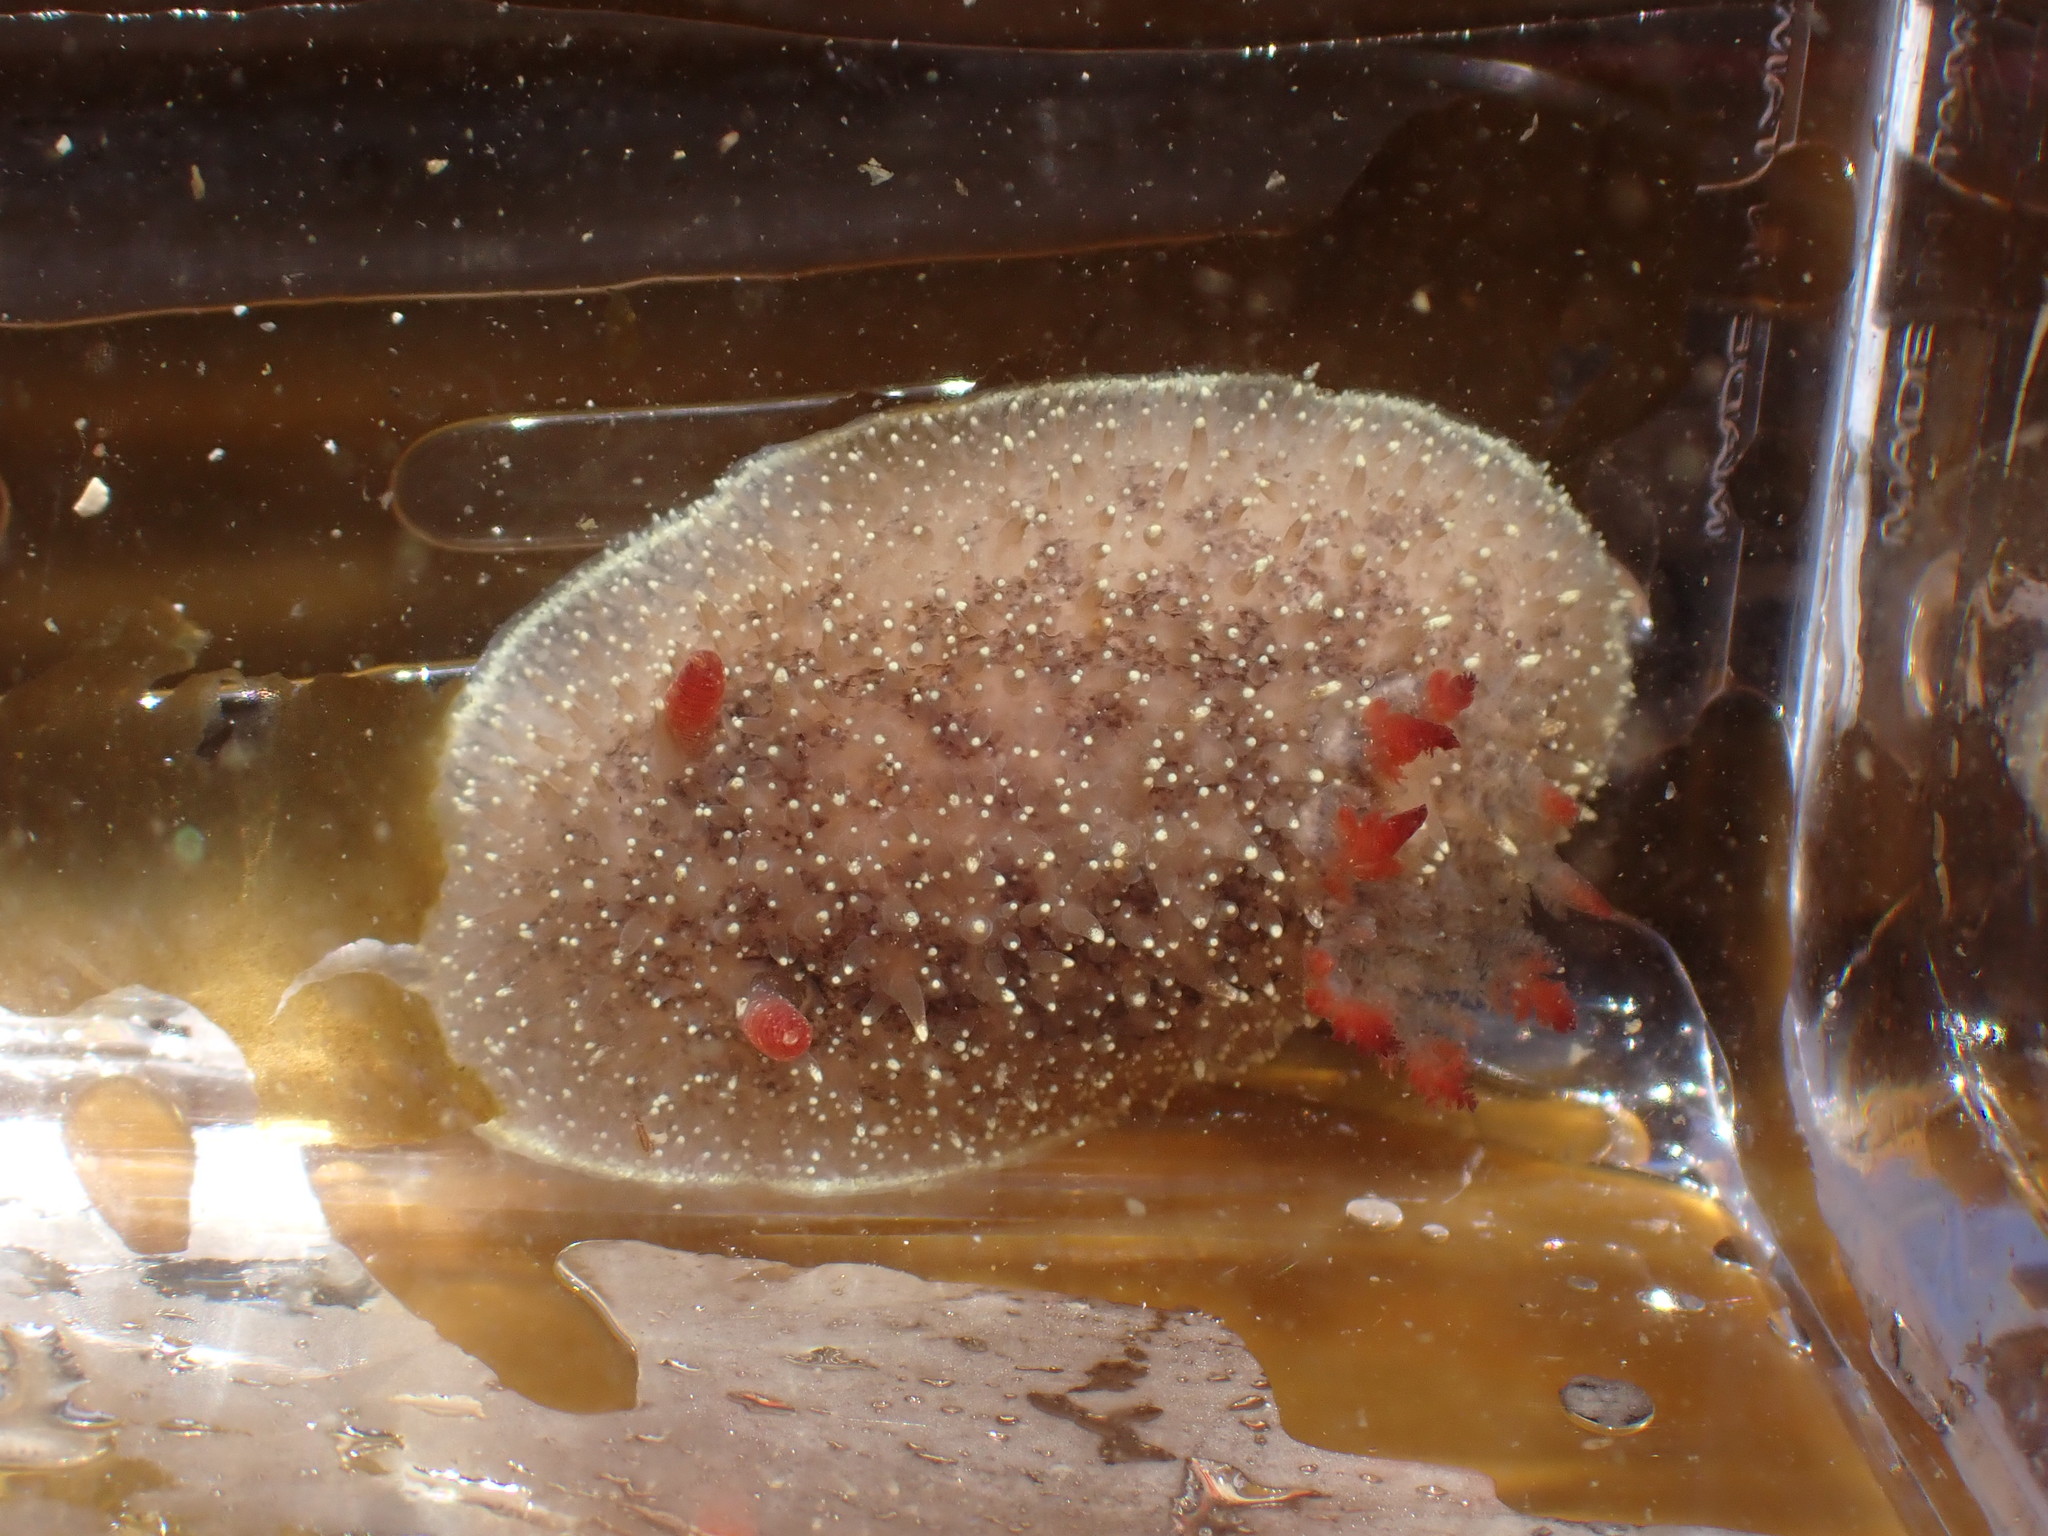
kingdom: Animalia
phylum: Mollusca
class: Gastropoda
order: Nudibranchia
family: Onchidorididae
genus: Acanthodoris
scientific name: Acanthodoris nanaimoensis
